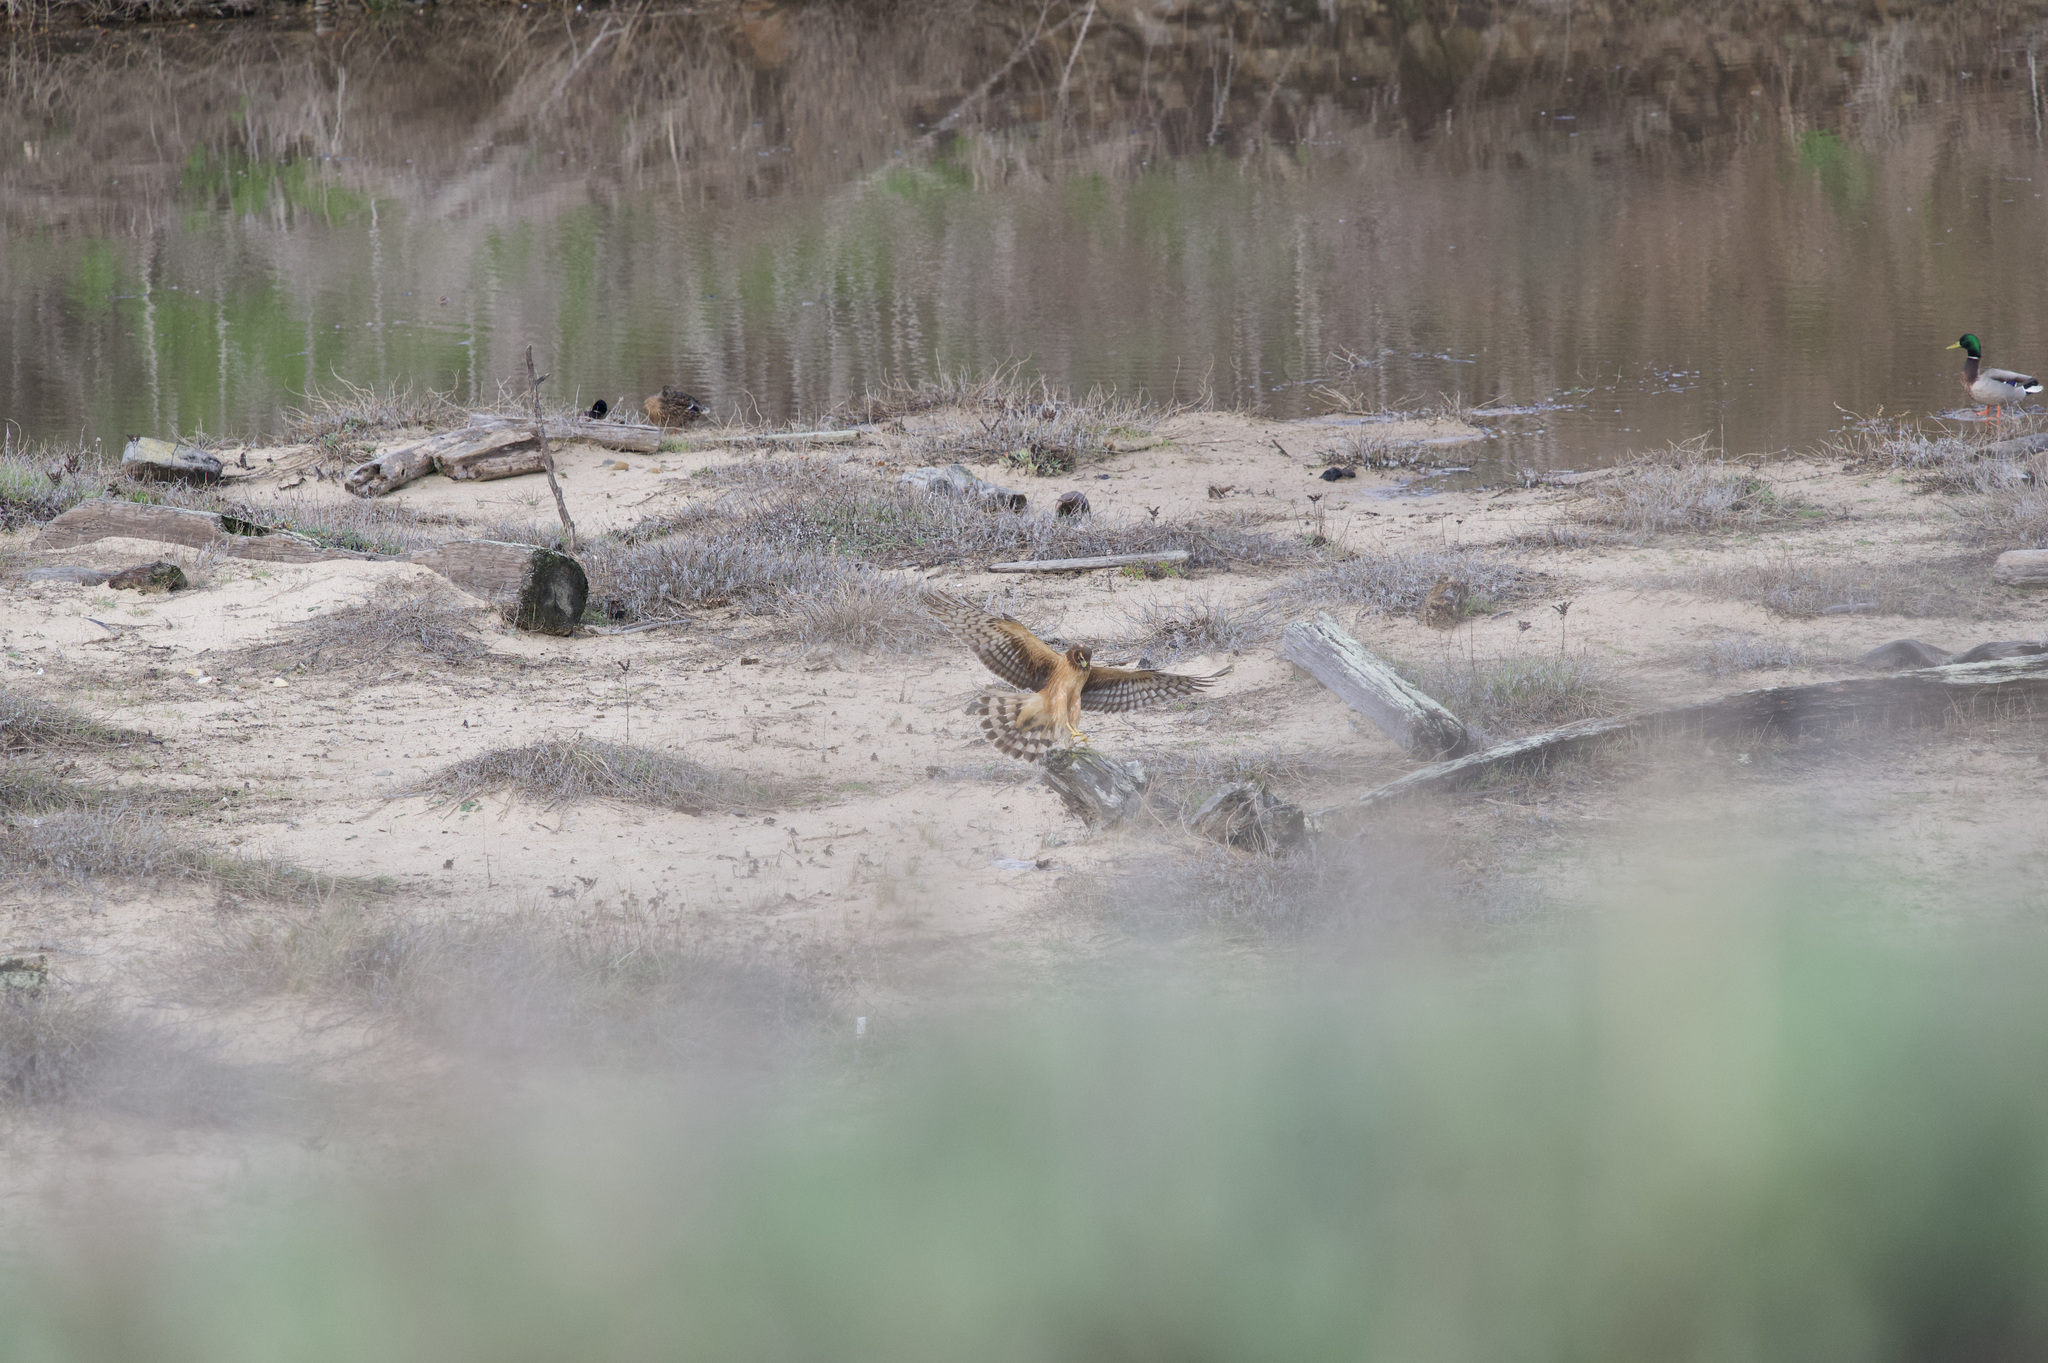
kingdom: Animalia
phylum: Chordata
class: Aves
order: Accipitriformes
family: Accipitridae
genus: Circus
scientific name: Circus cyaneus
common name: Hen harrier
